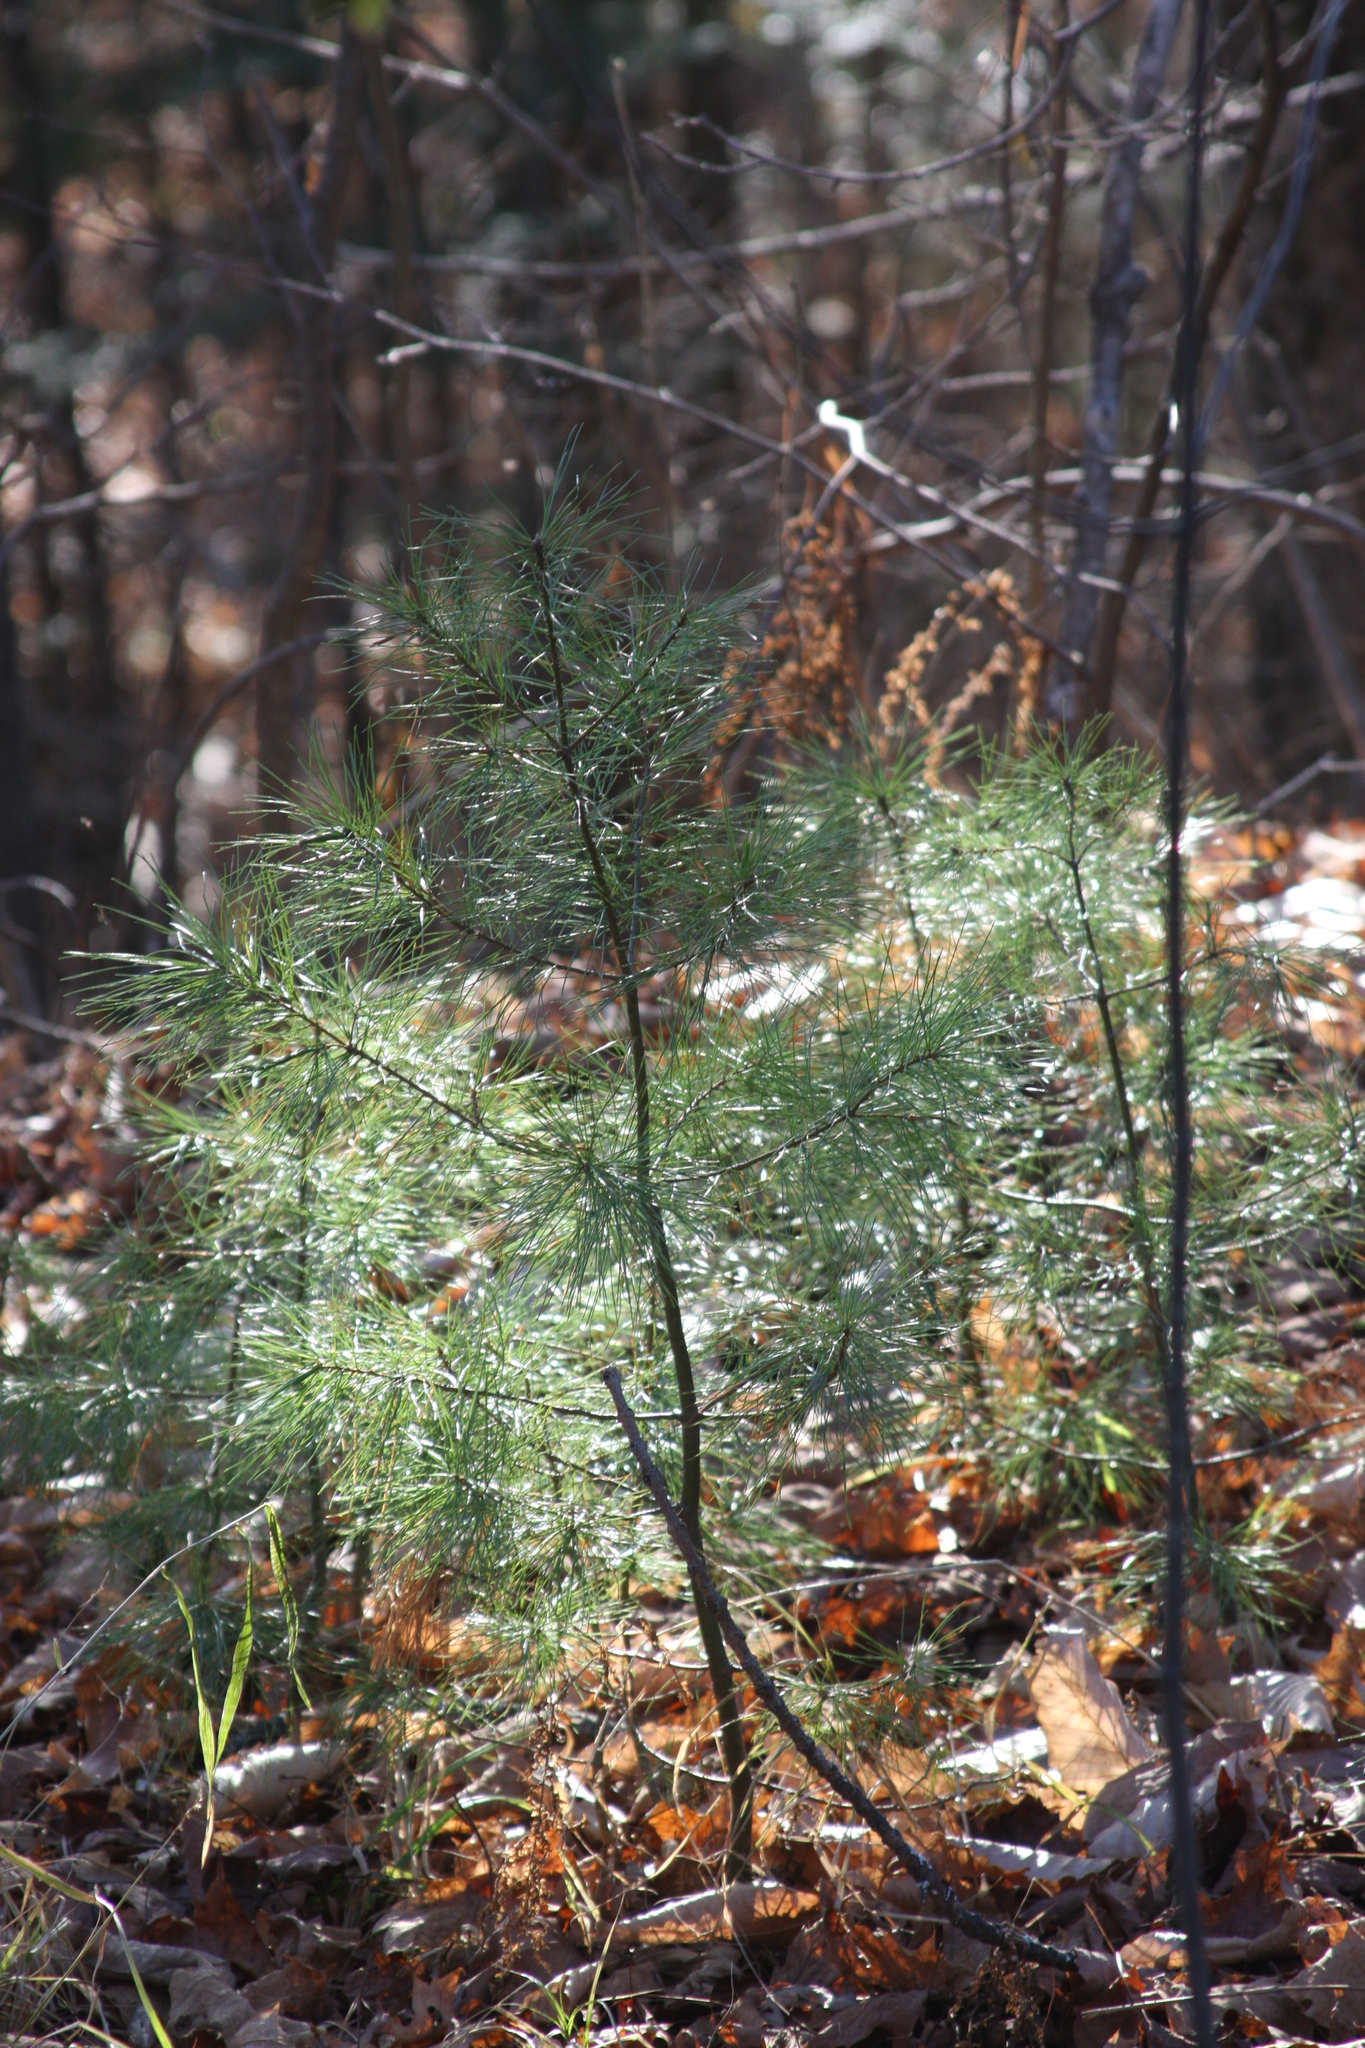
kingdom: Plantae
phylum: Tracheophyta
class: Pinopsida
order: Pinales
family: Pinaceae
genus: Pinus
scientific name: Pinus strobus
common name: Weymouth pine
